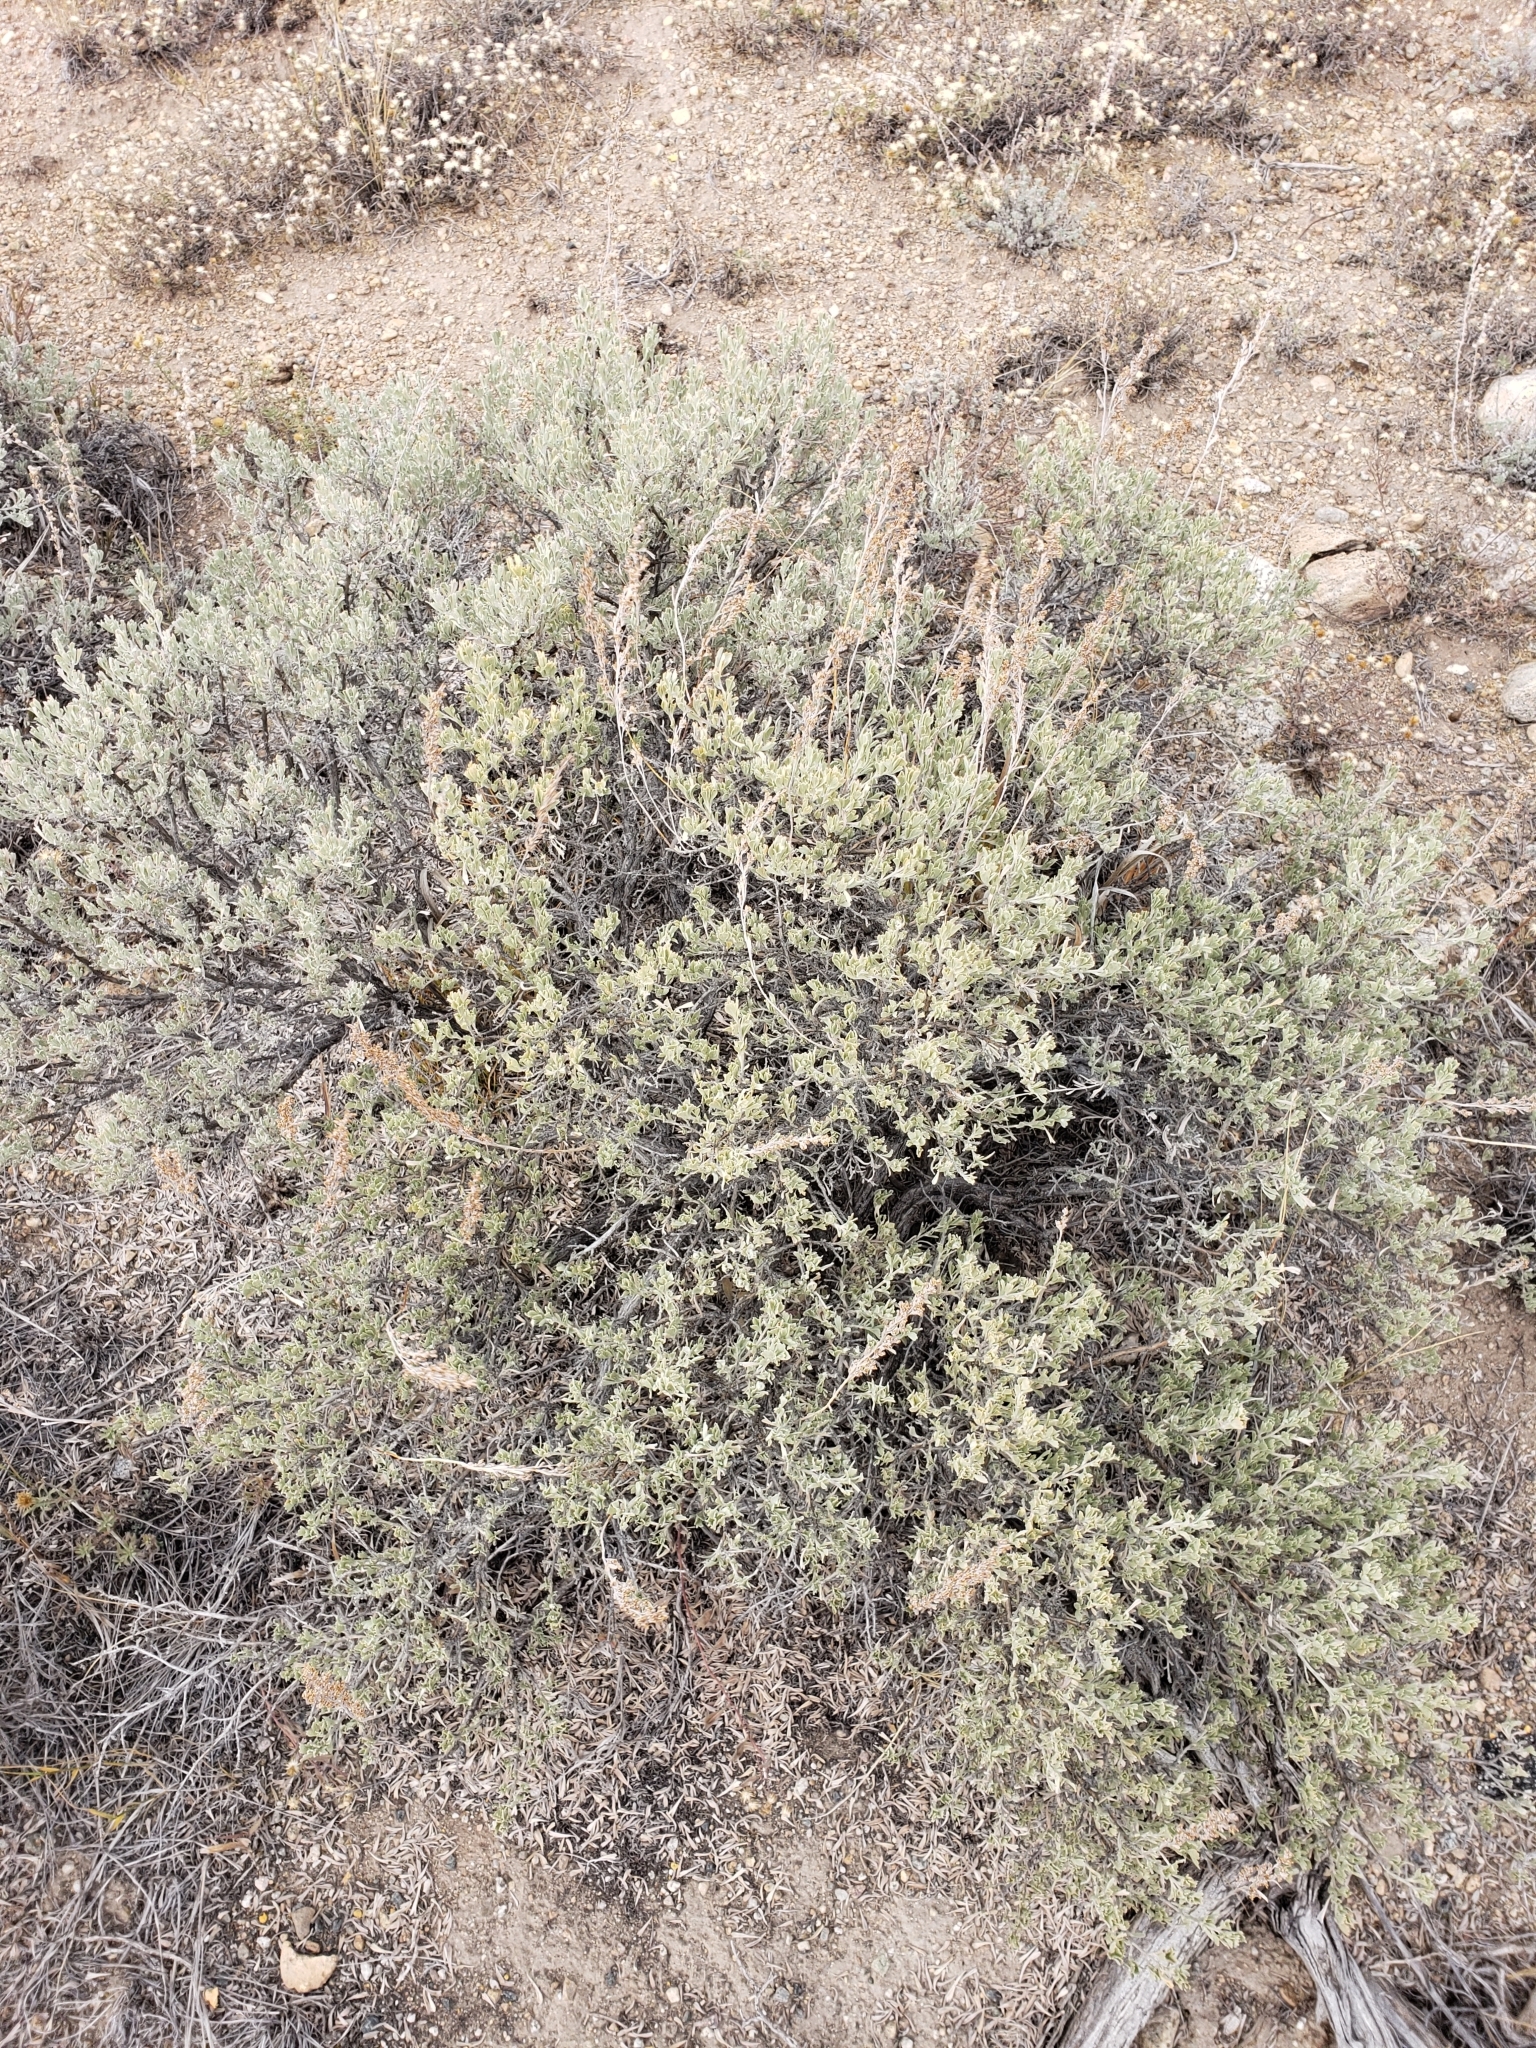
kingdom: Plantae
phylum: Tracheophyta
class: Magnoliopsida
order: Asterales
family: Asteraceae
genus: Artemisia
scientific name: Artemisia tridentata
